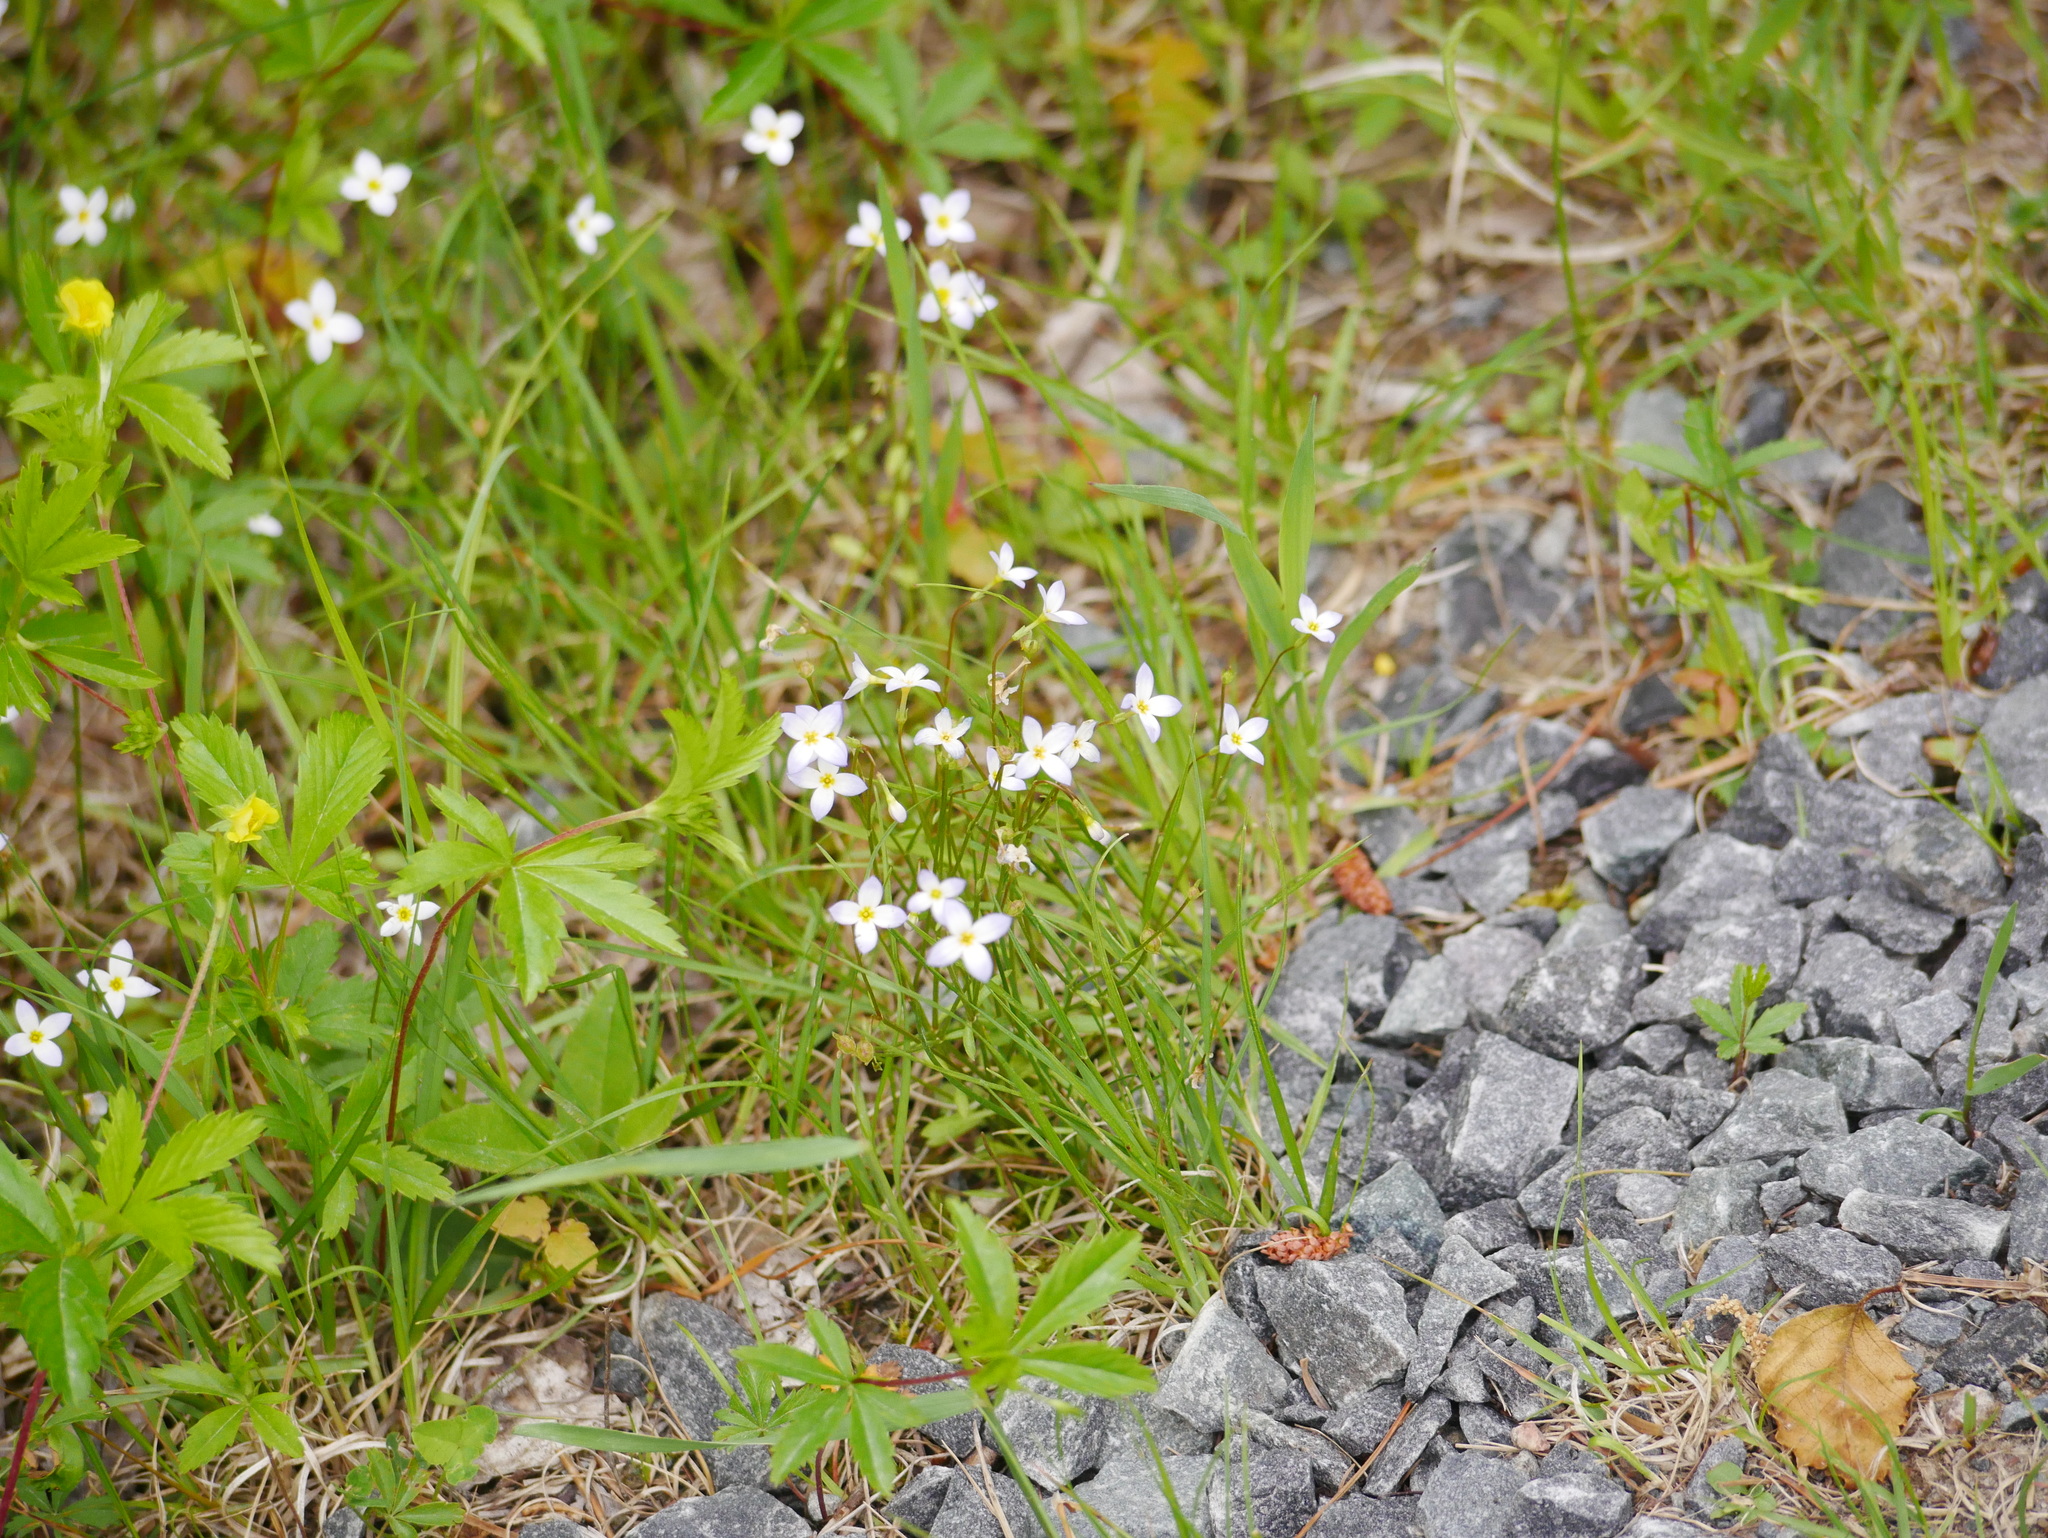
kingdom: Plantae
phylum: Tracheophyta
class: Magnoliopsida
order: Gentianales
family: Rubiaceae
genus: Houstonia
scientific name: Houstonia caerulea
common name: Bluets
